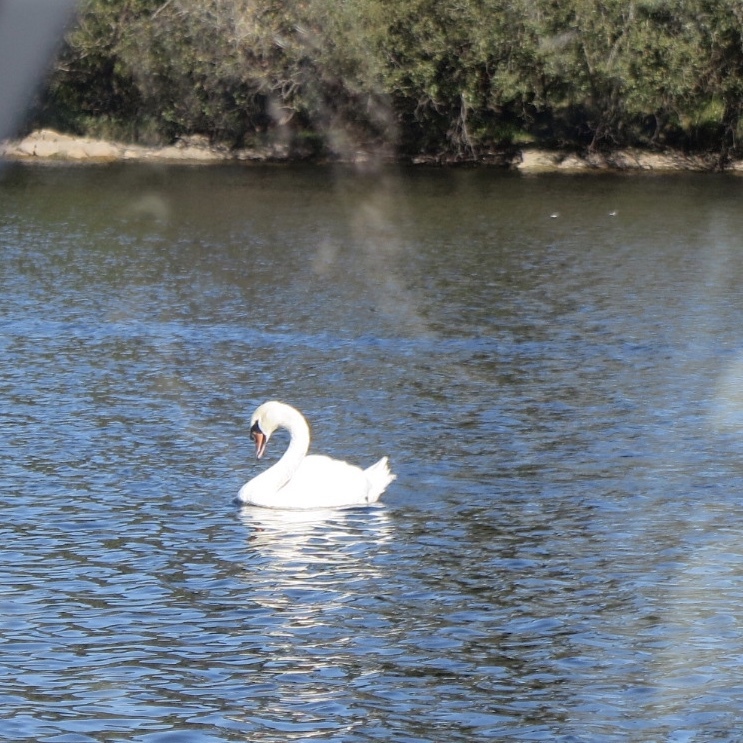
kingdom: Animalia
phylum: Chordata
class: Aves
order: Anseriformes
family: Anatidae
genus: Cygnus
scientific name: Cygnus olor
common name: Mute swan
